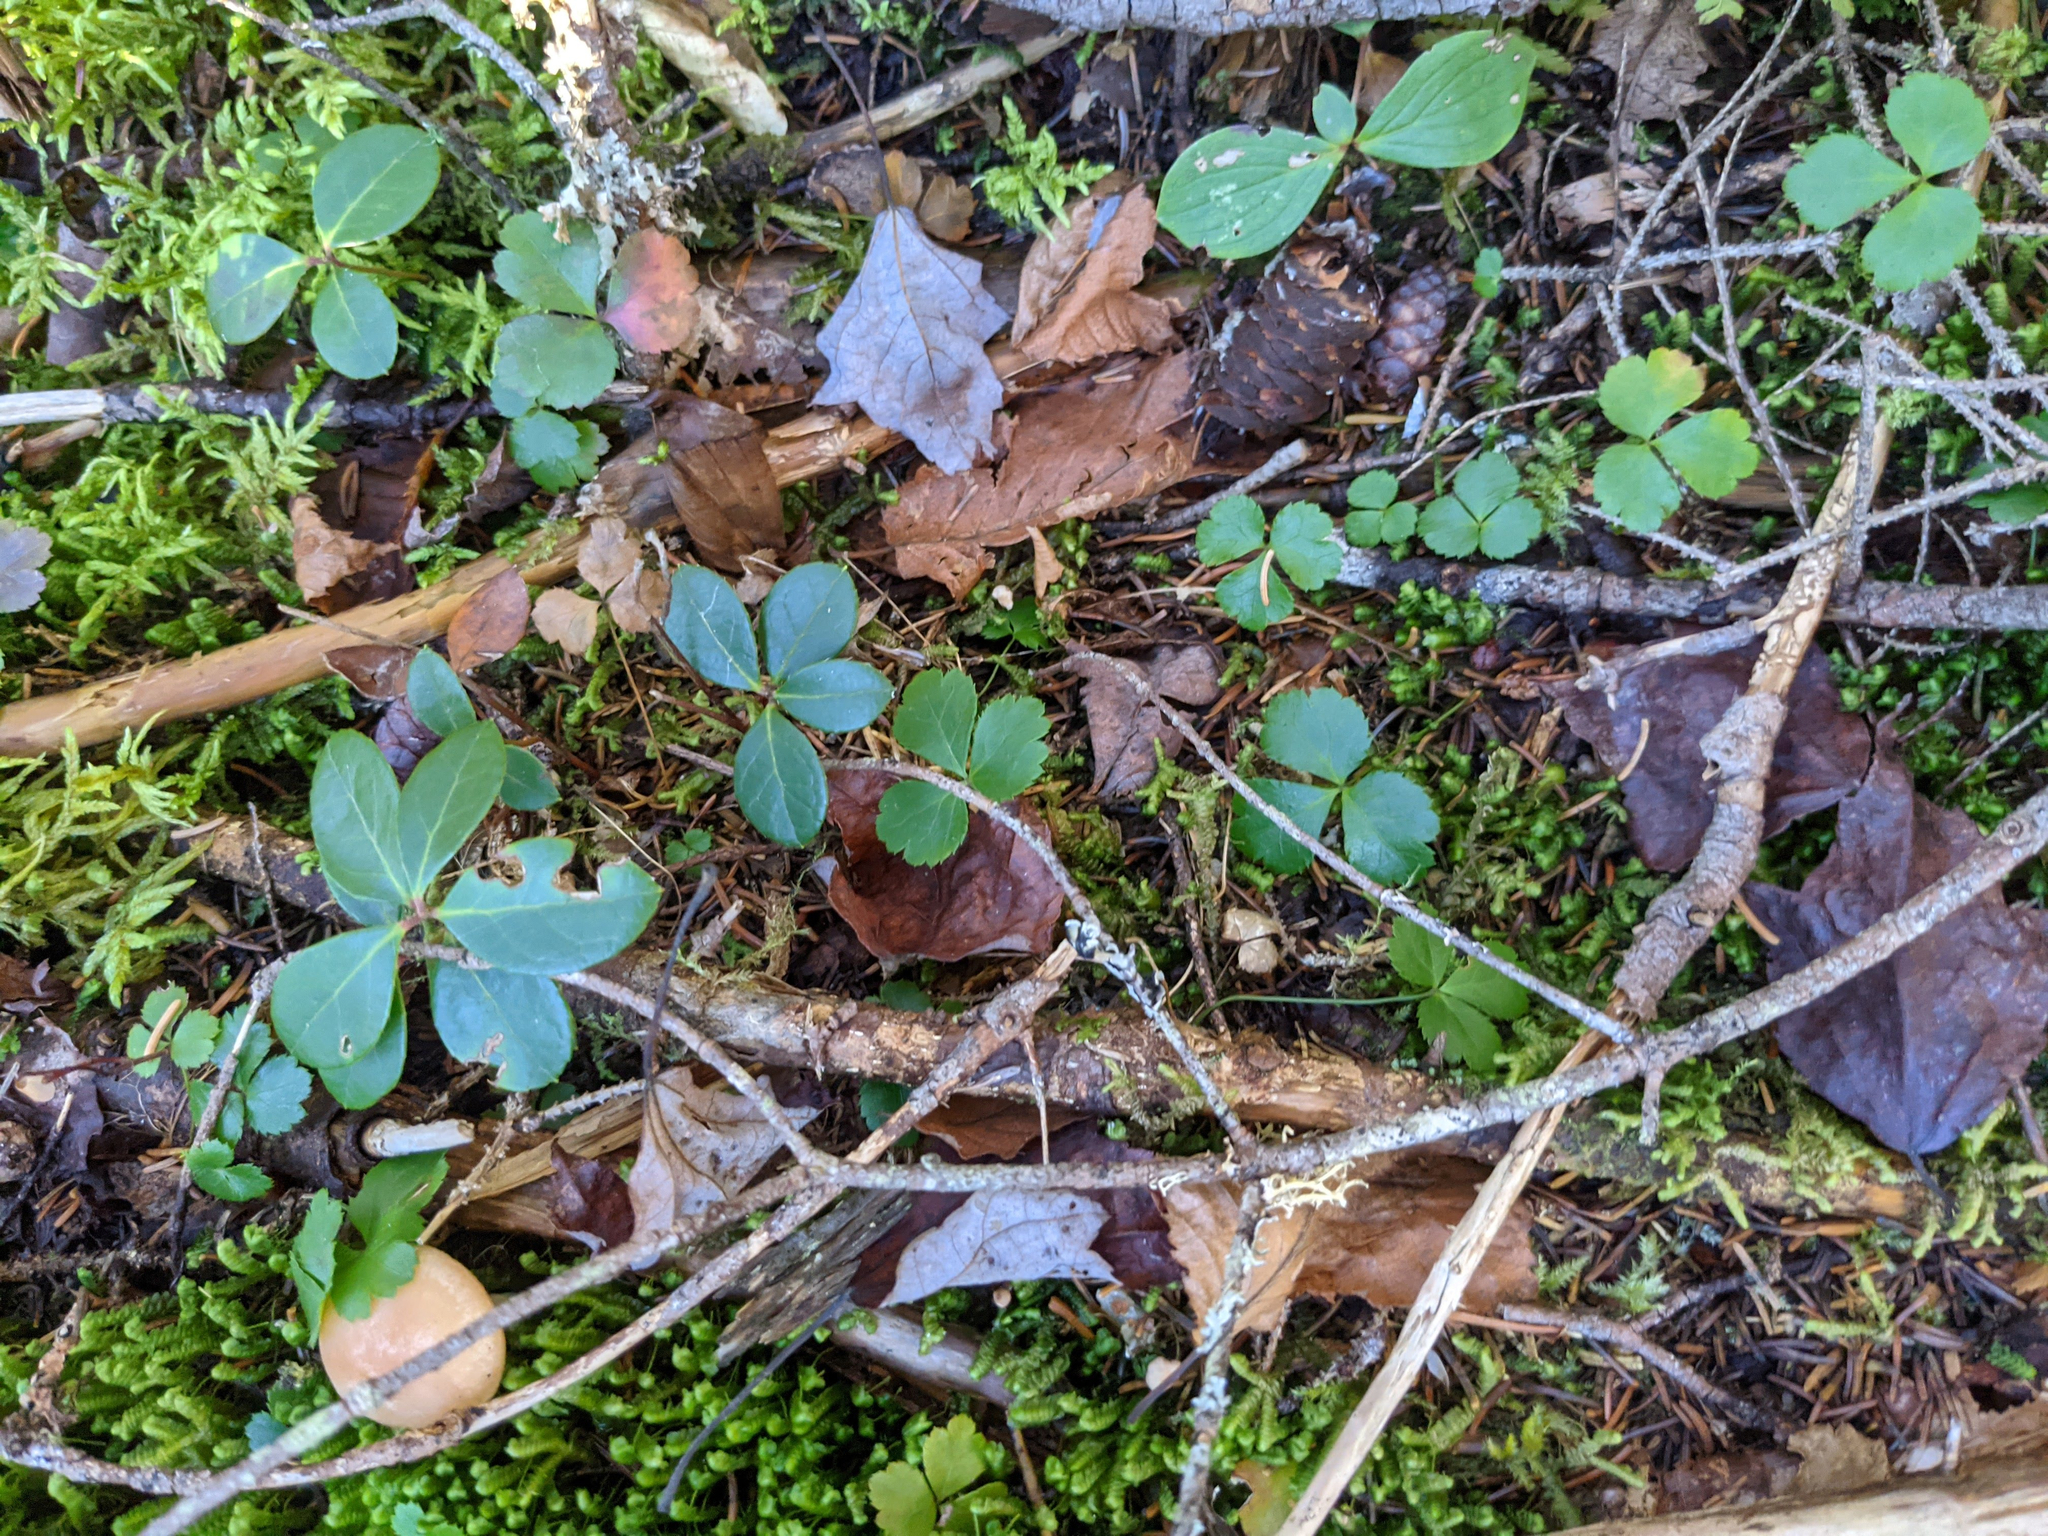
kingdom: Plantae
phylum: Tracheophyta
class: Magnoliopsida
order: Ericales
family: Ericaceae
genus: Gaultheria
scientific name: Gaultheria procumbens
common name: Checkerberry
